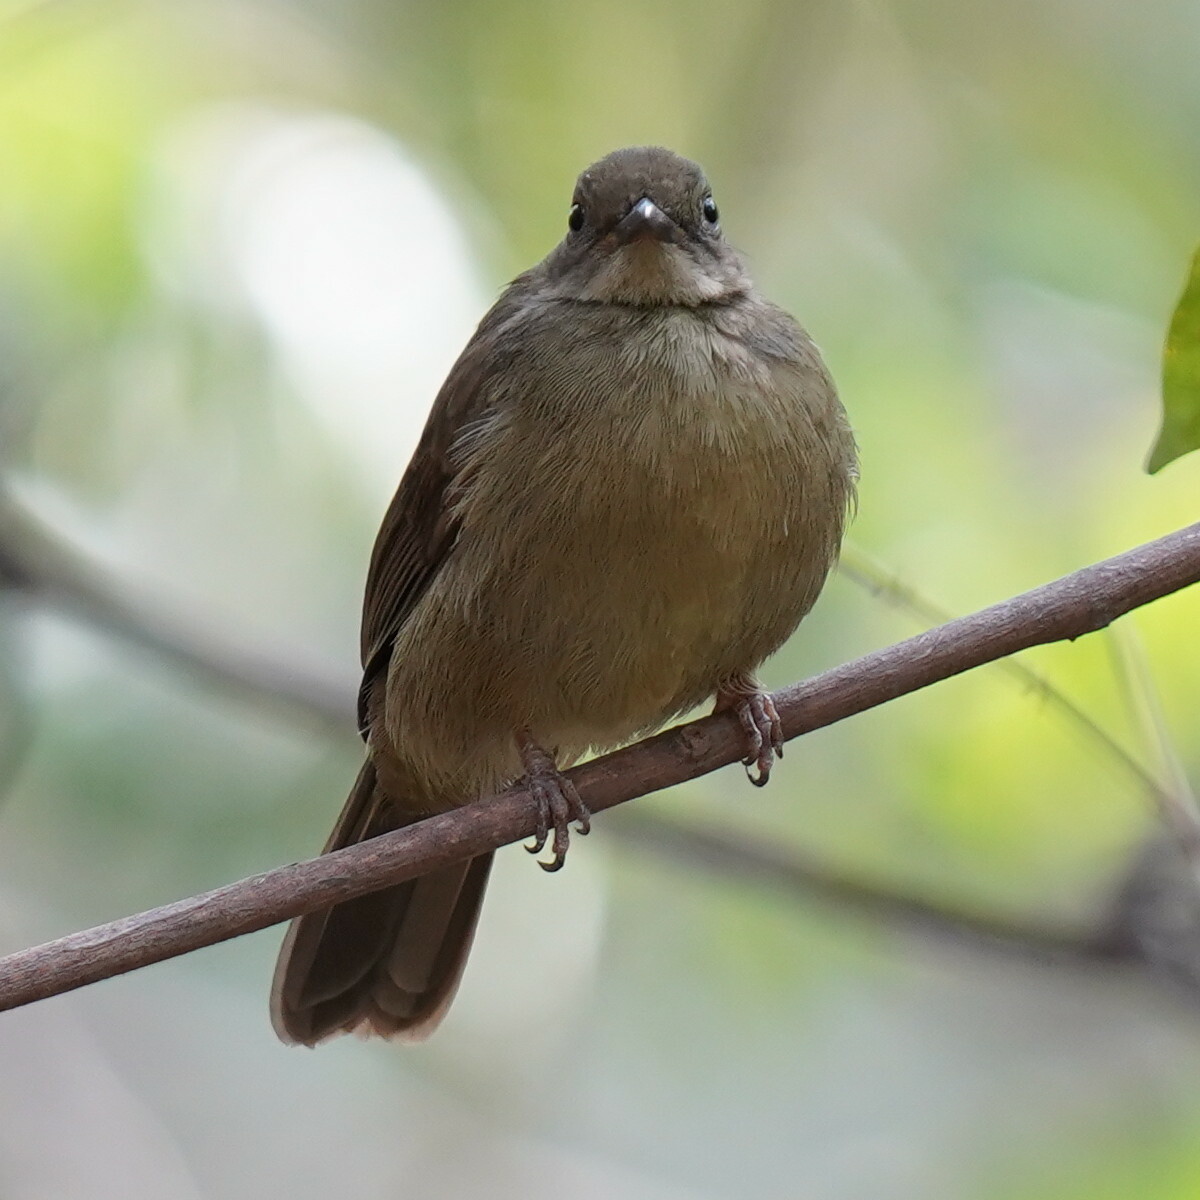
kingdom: Animalia
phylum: Chordata
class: Aves
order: Passeriformes
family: Pycnonotidae
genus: Eurillas
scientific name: Eurillas virens
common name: Little greenbul
